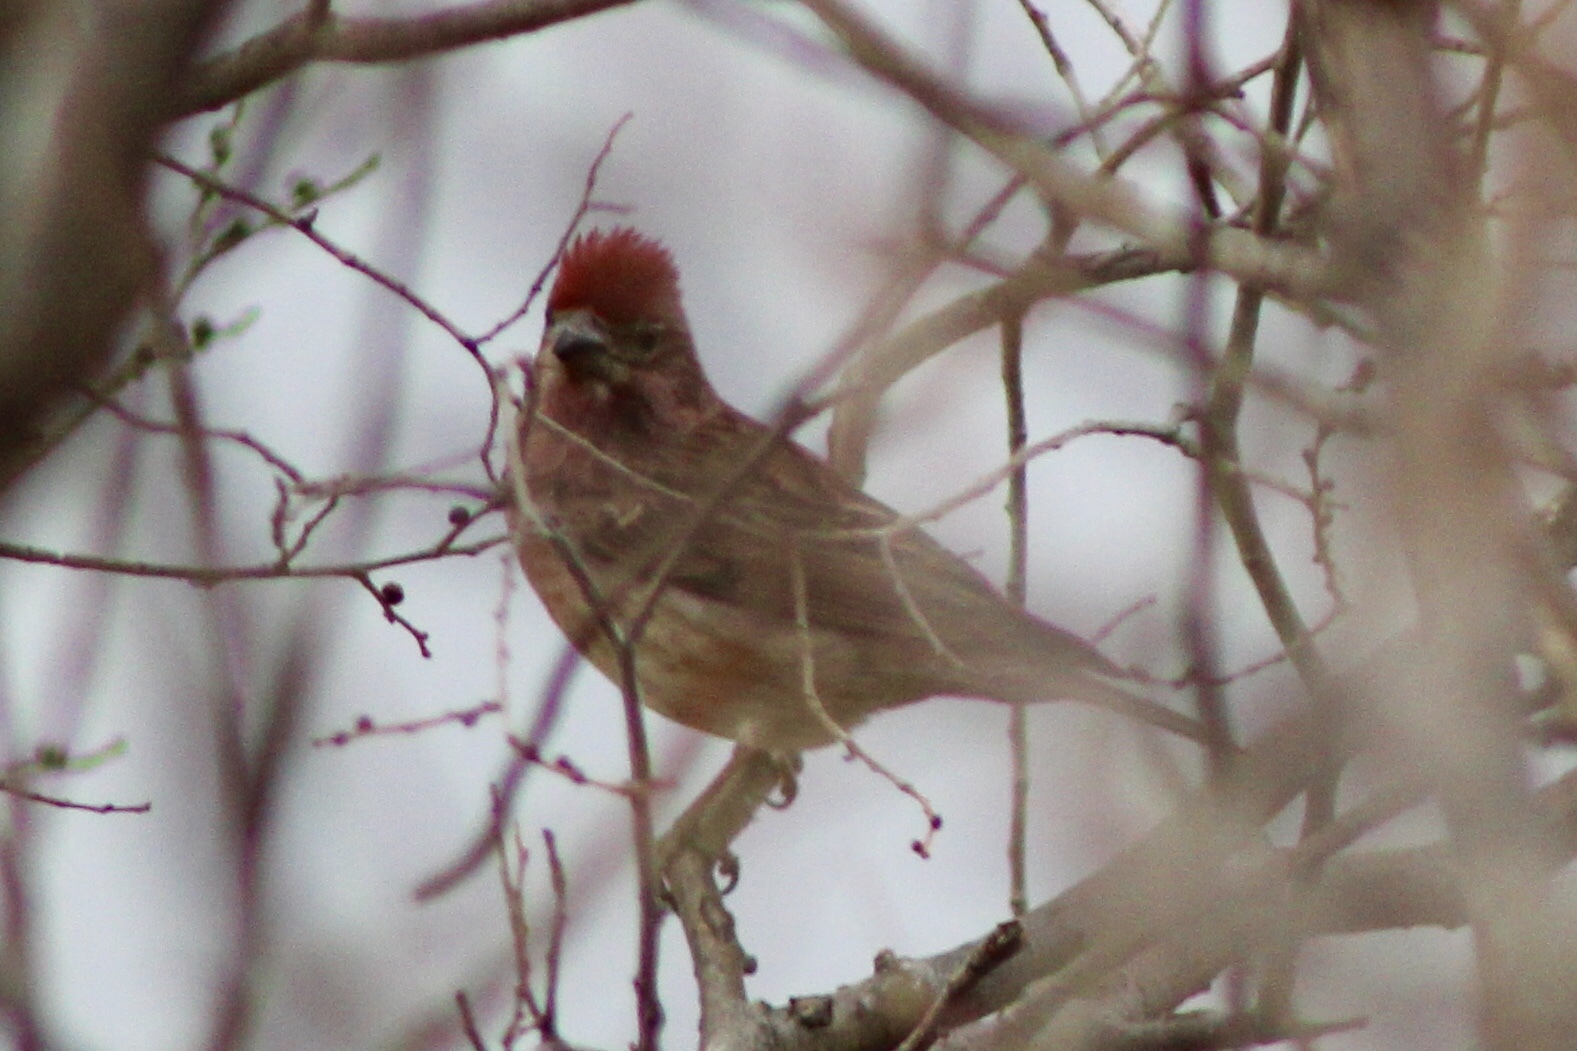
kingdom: Animalia
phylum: Chordata
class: Aves
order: Passeriformes
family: Fringillidae
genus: Haemorhous
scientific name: Haemorhous cassinii
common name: Cassin's finch
